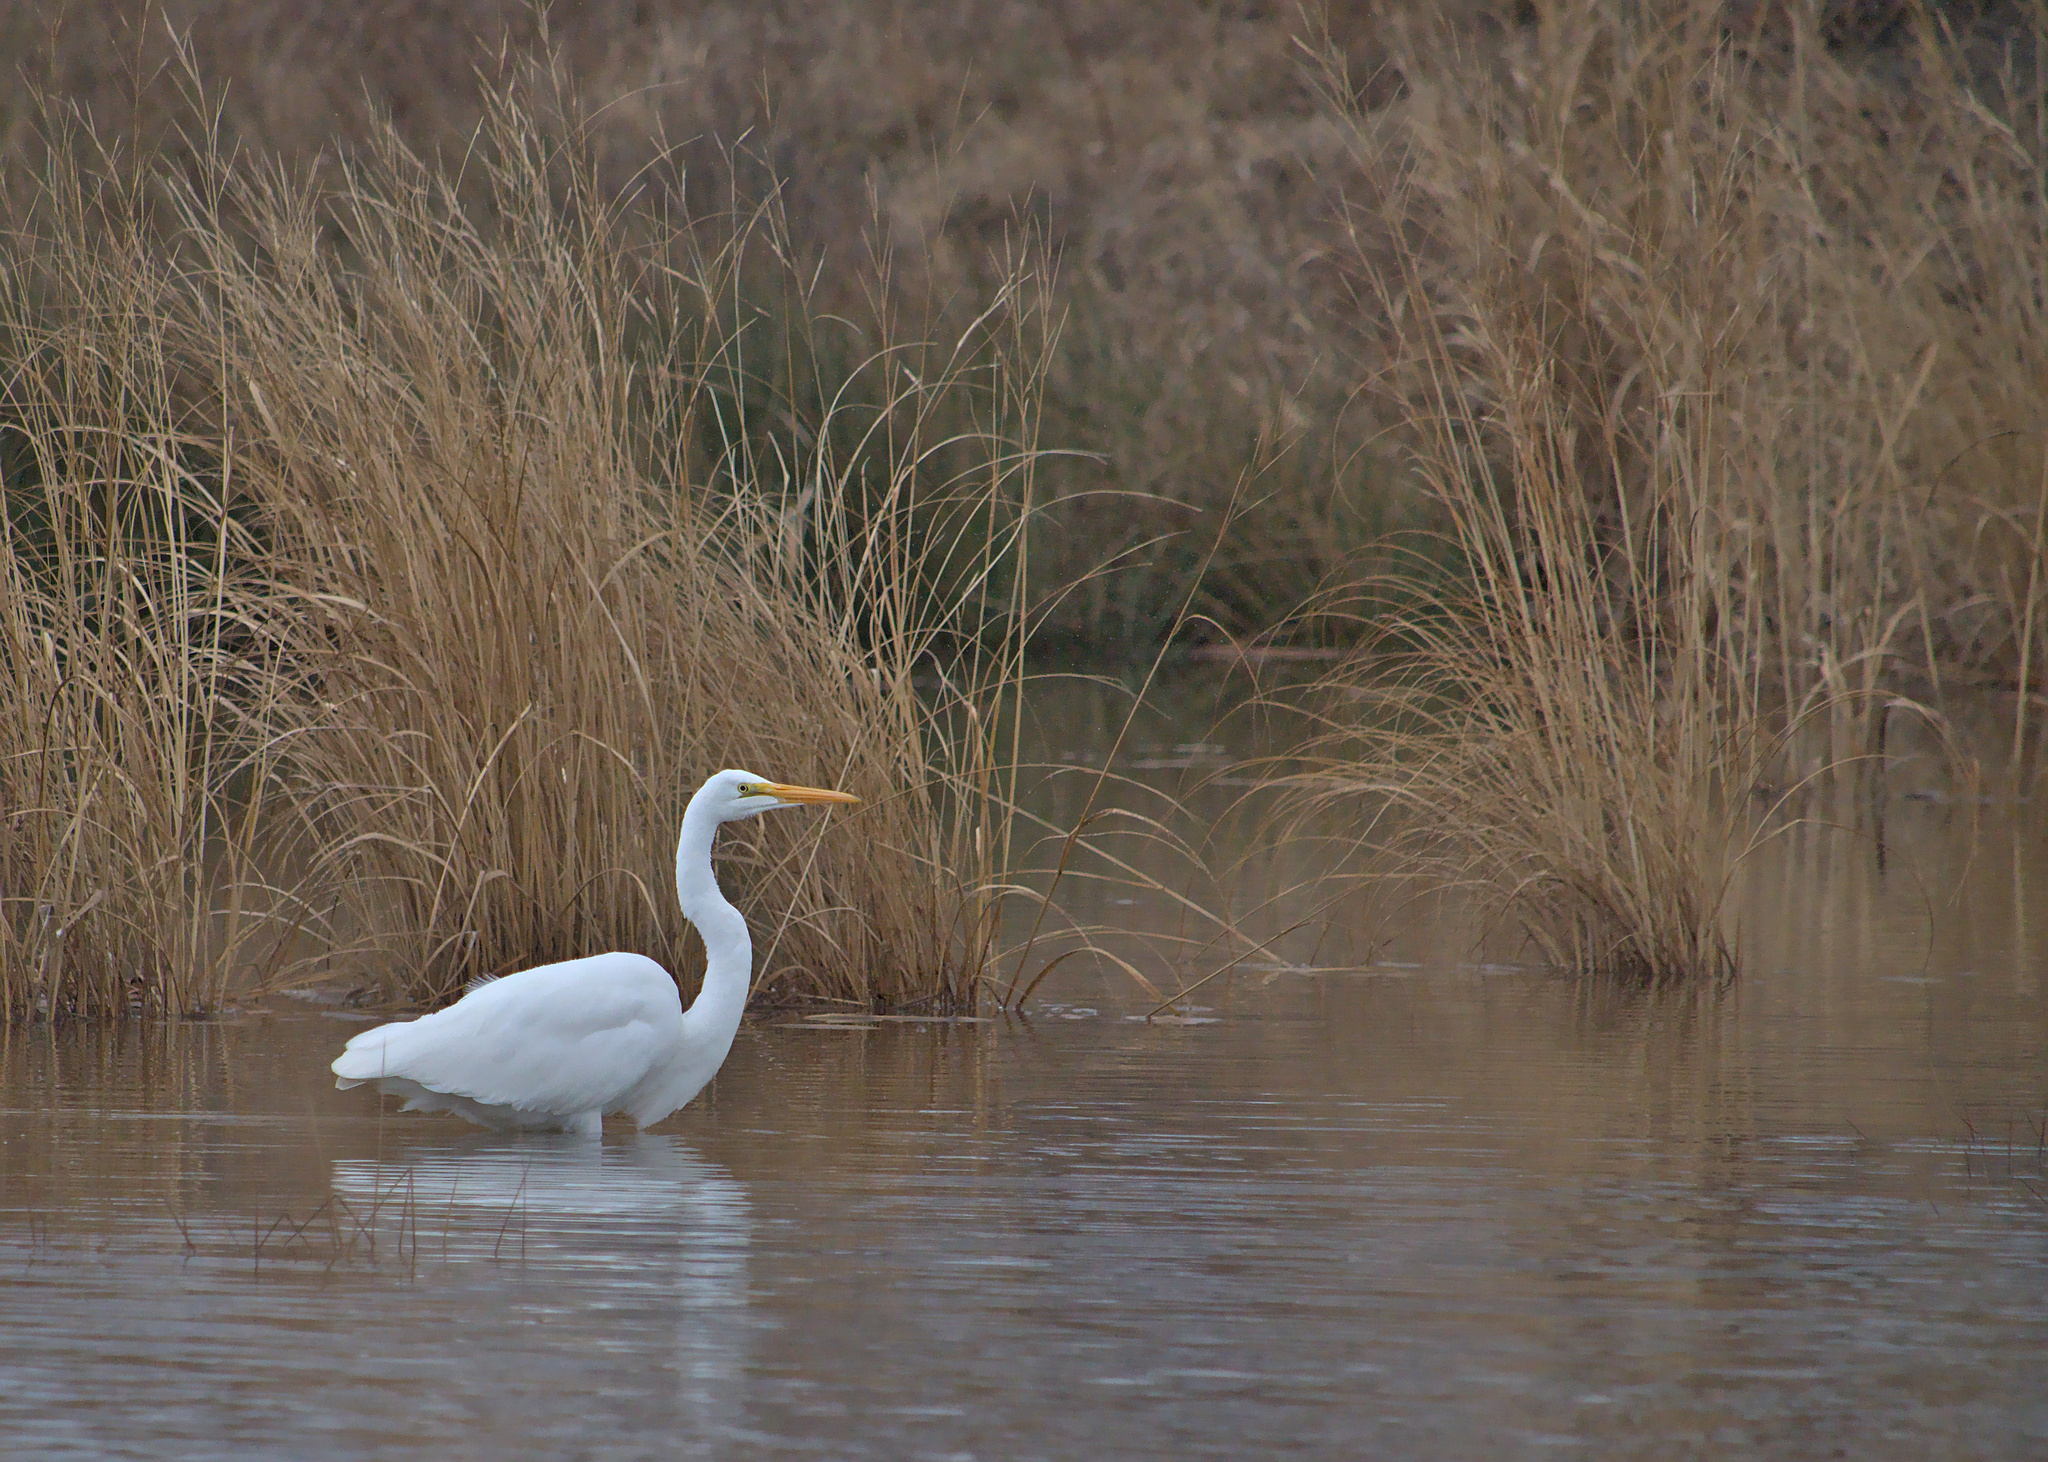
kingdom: Animalia
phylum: Chordata
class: Aves
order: Pelecaniformes
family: Ardeidae
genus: Ardea
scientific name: Ardea alba
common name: Great egret
